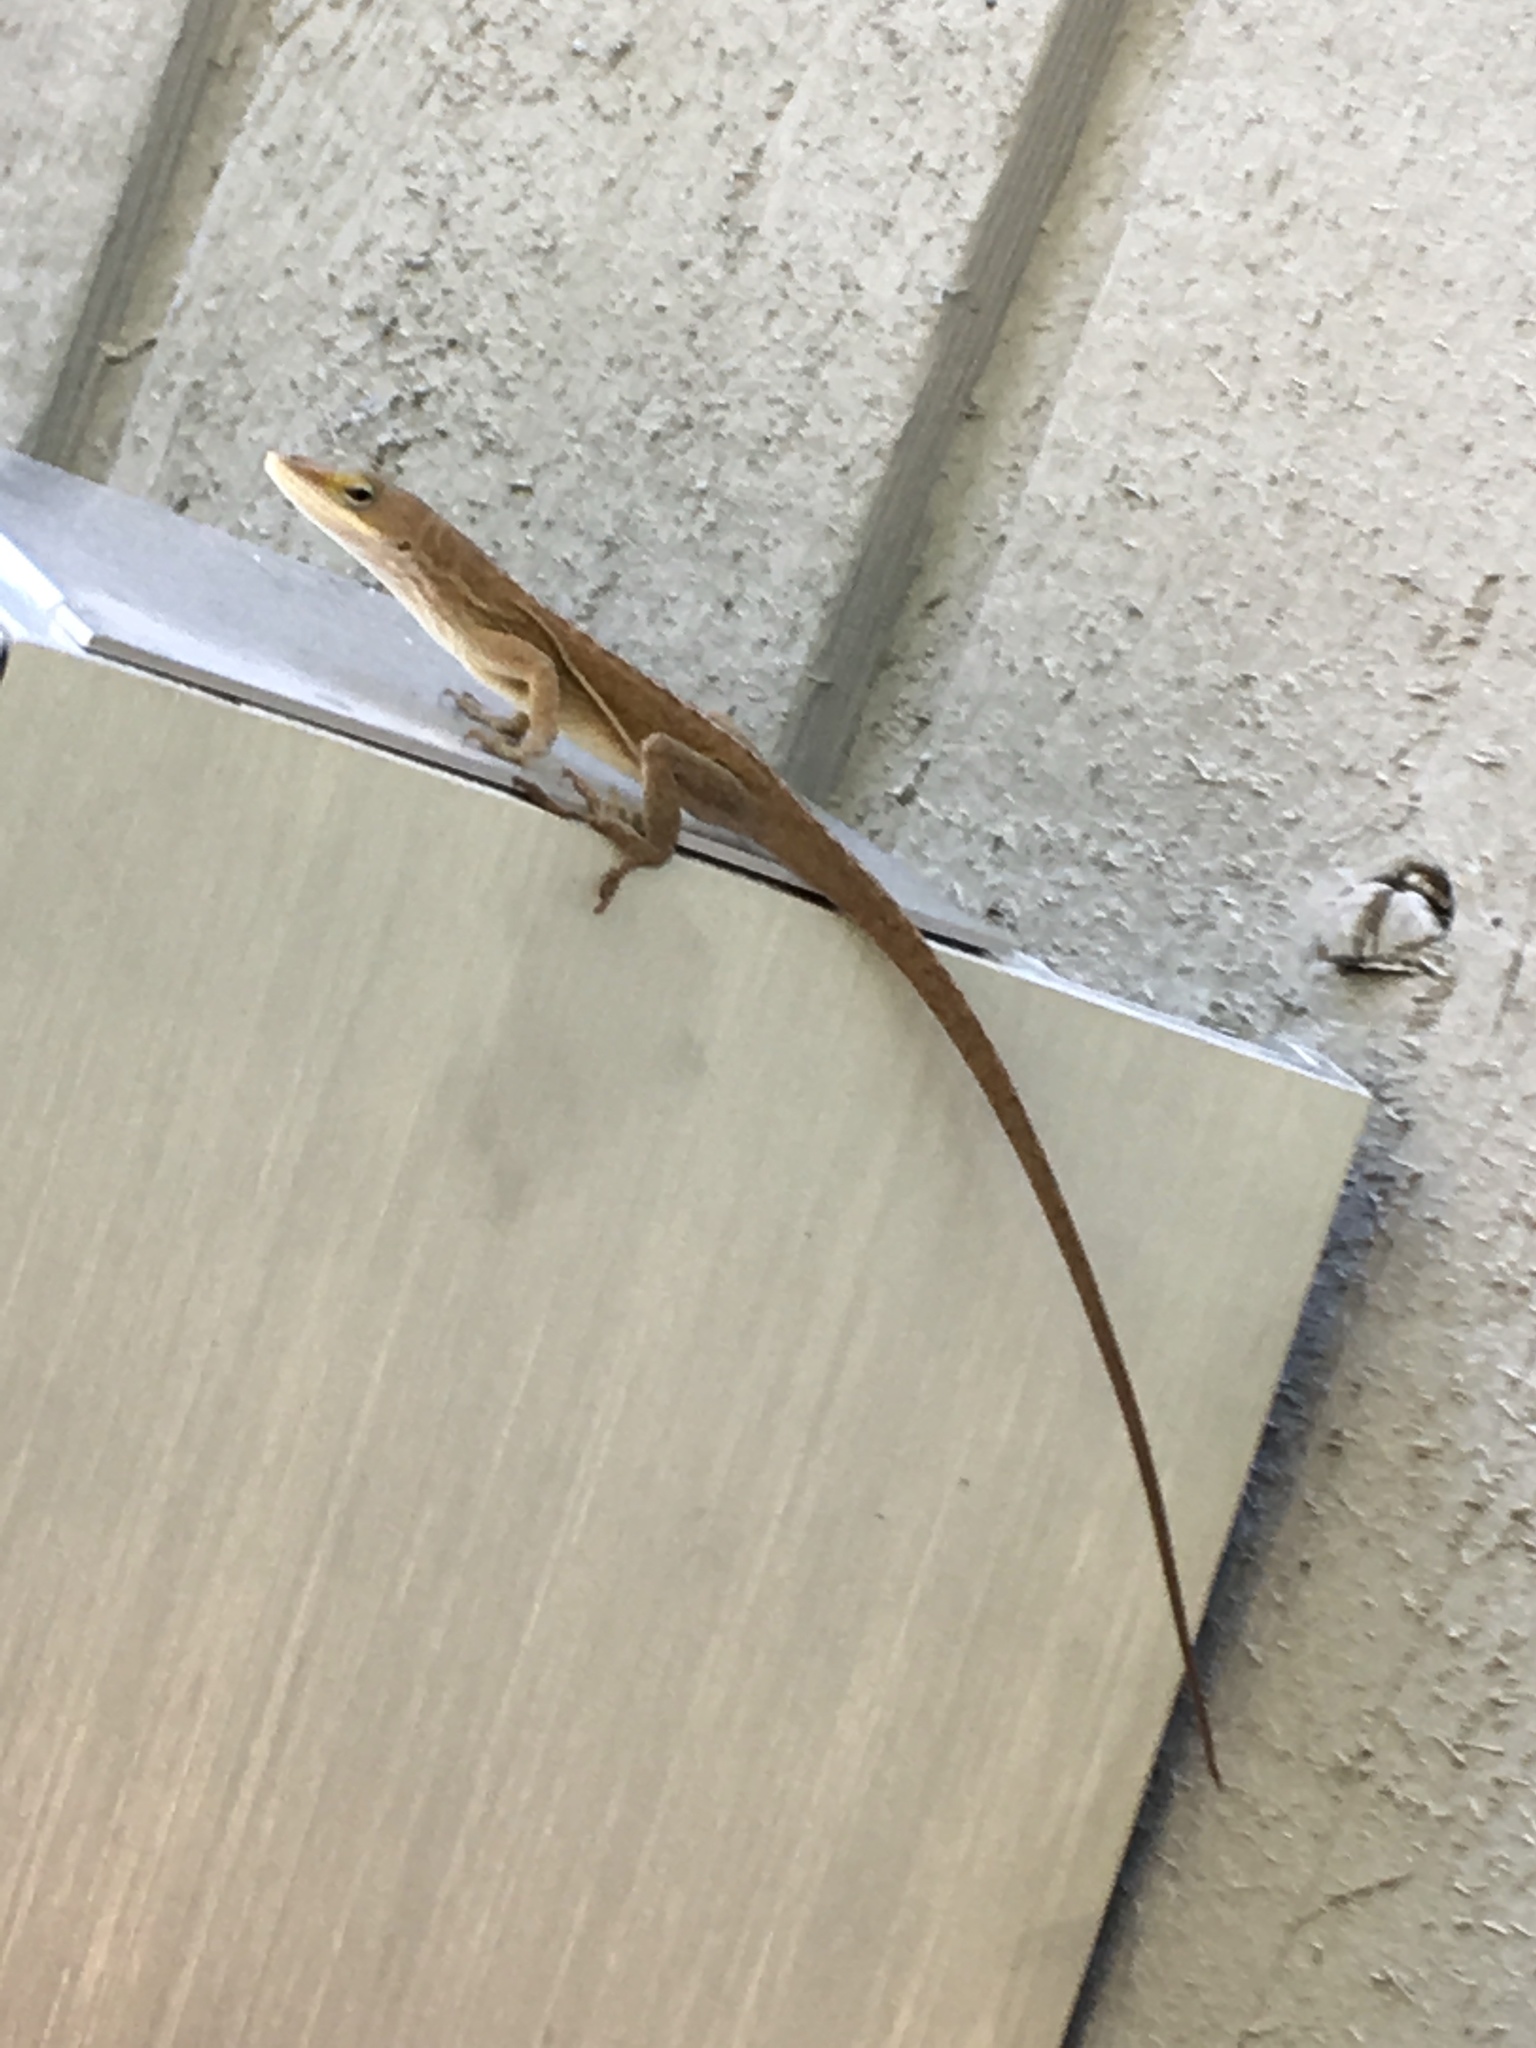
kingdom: Animalia
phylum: Chordata
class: Squamata
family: Dactyloidae
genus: Anolis
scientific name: Anolis carolinensis
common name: Green anole
